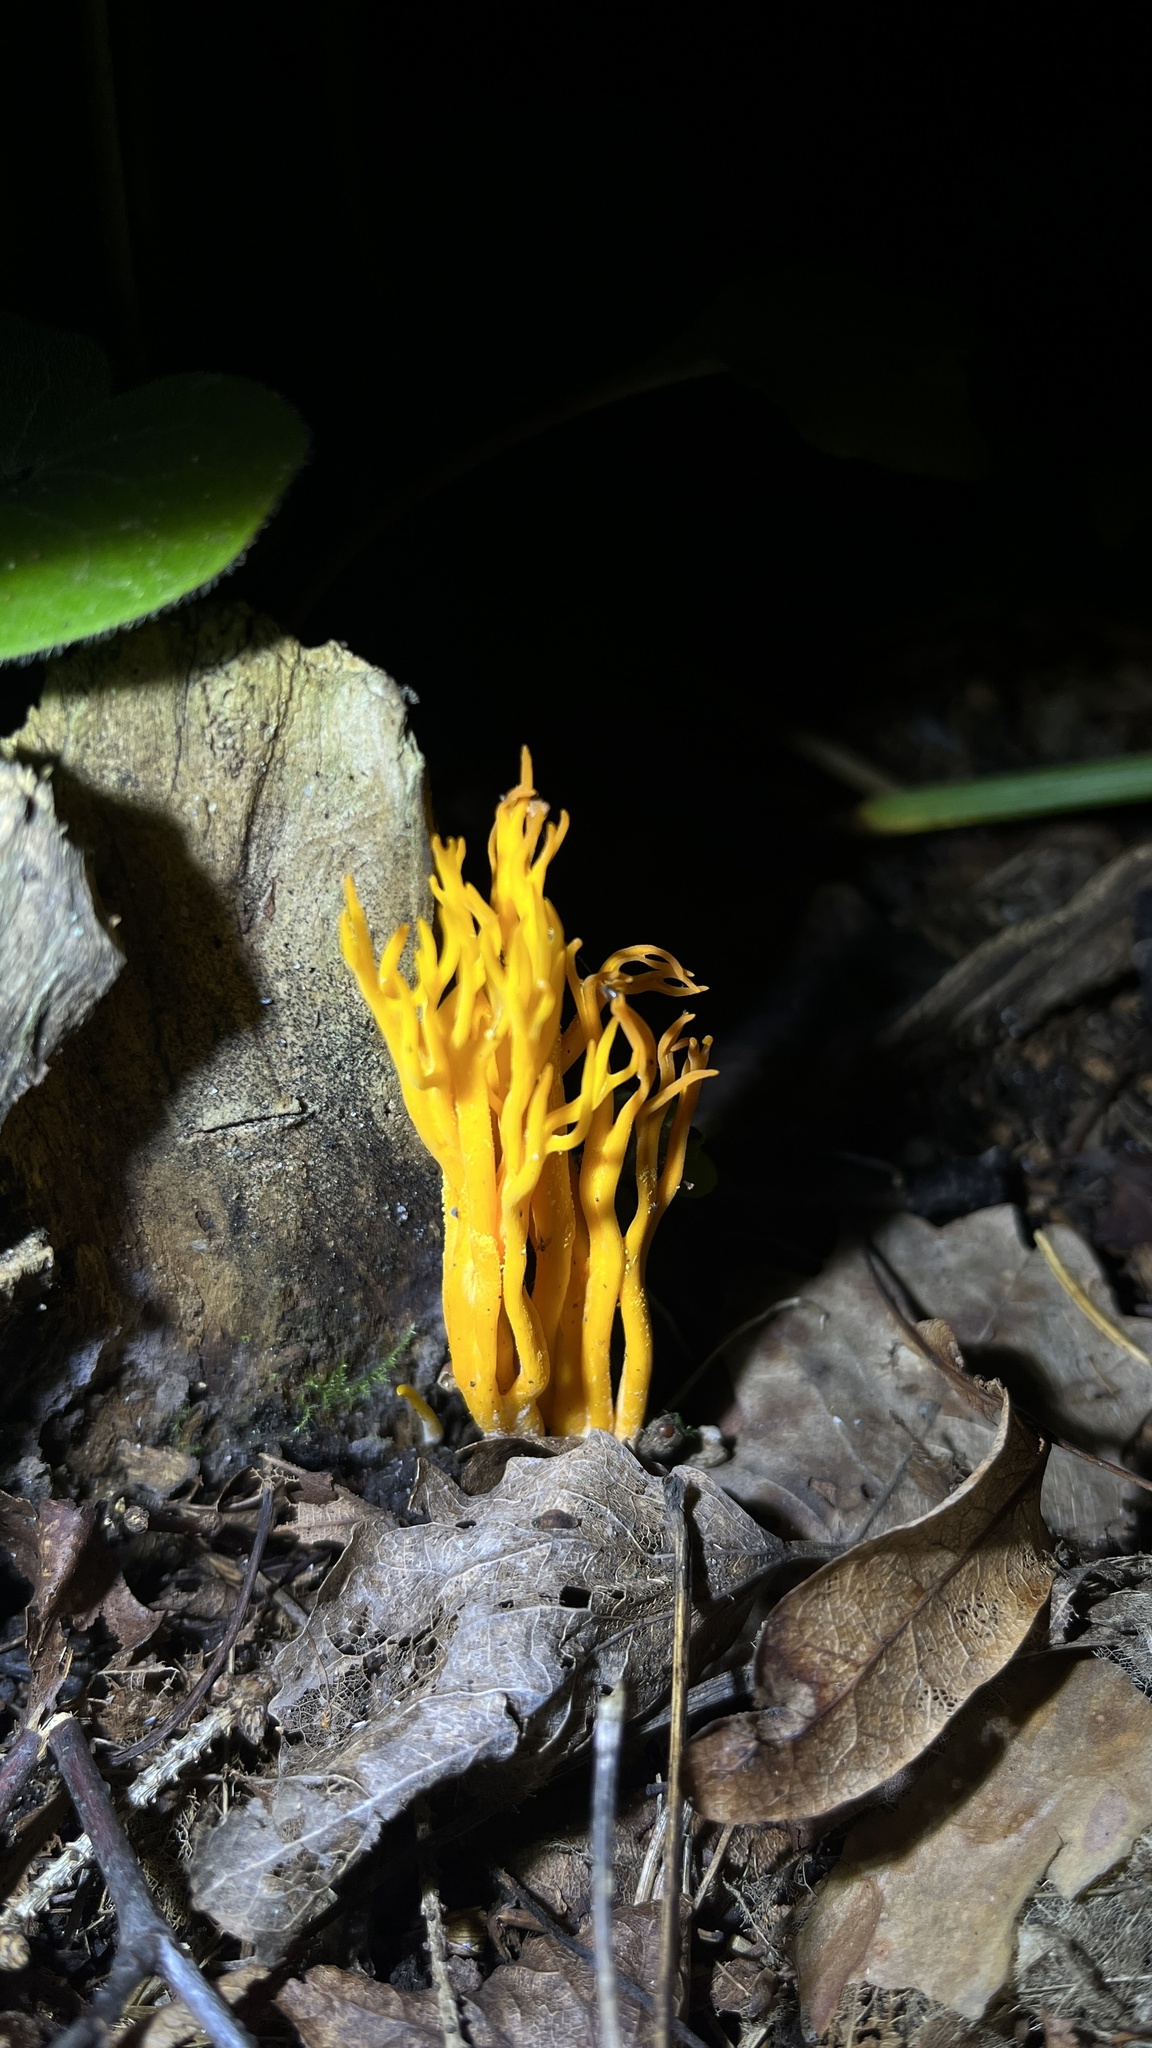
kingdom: Fungi
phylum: Basidiomycota
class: Dacrymycetes
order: Dacrymycetales
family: Dacrymycetaceae
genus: Calocera
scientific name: Calocera viscosa
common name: Yellow stagshorn
